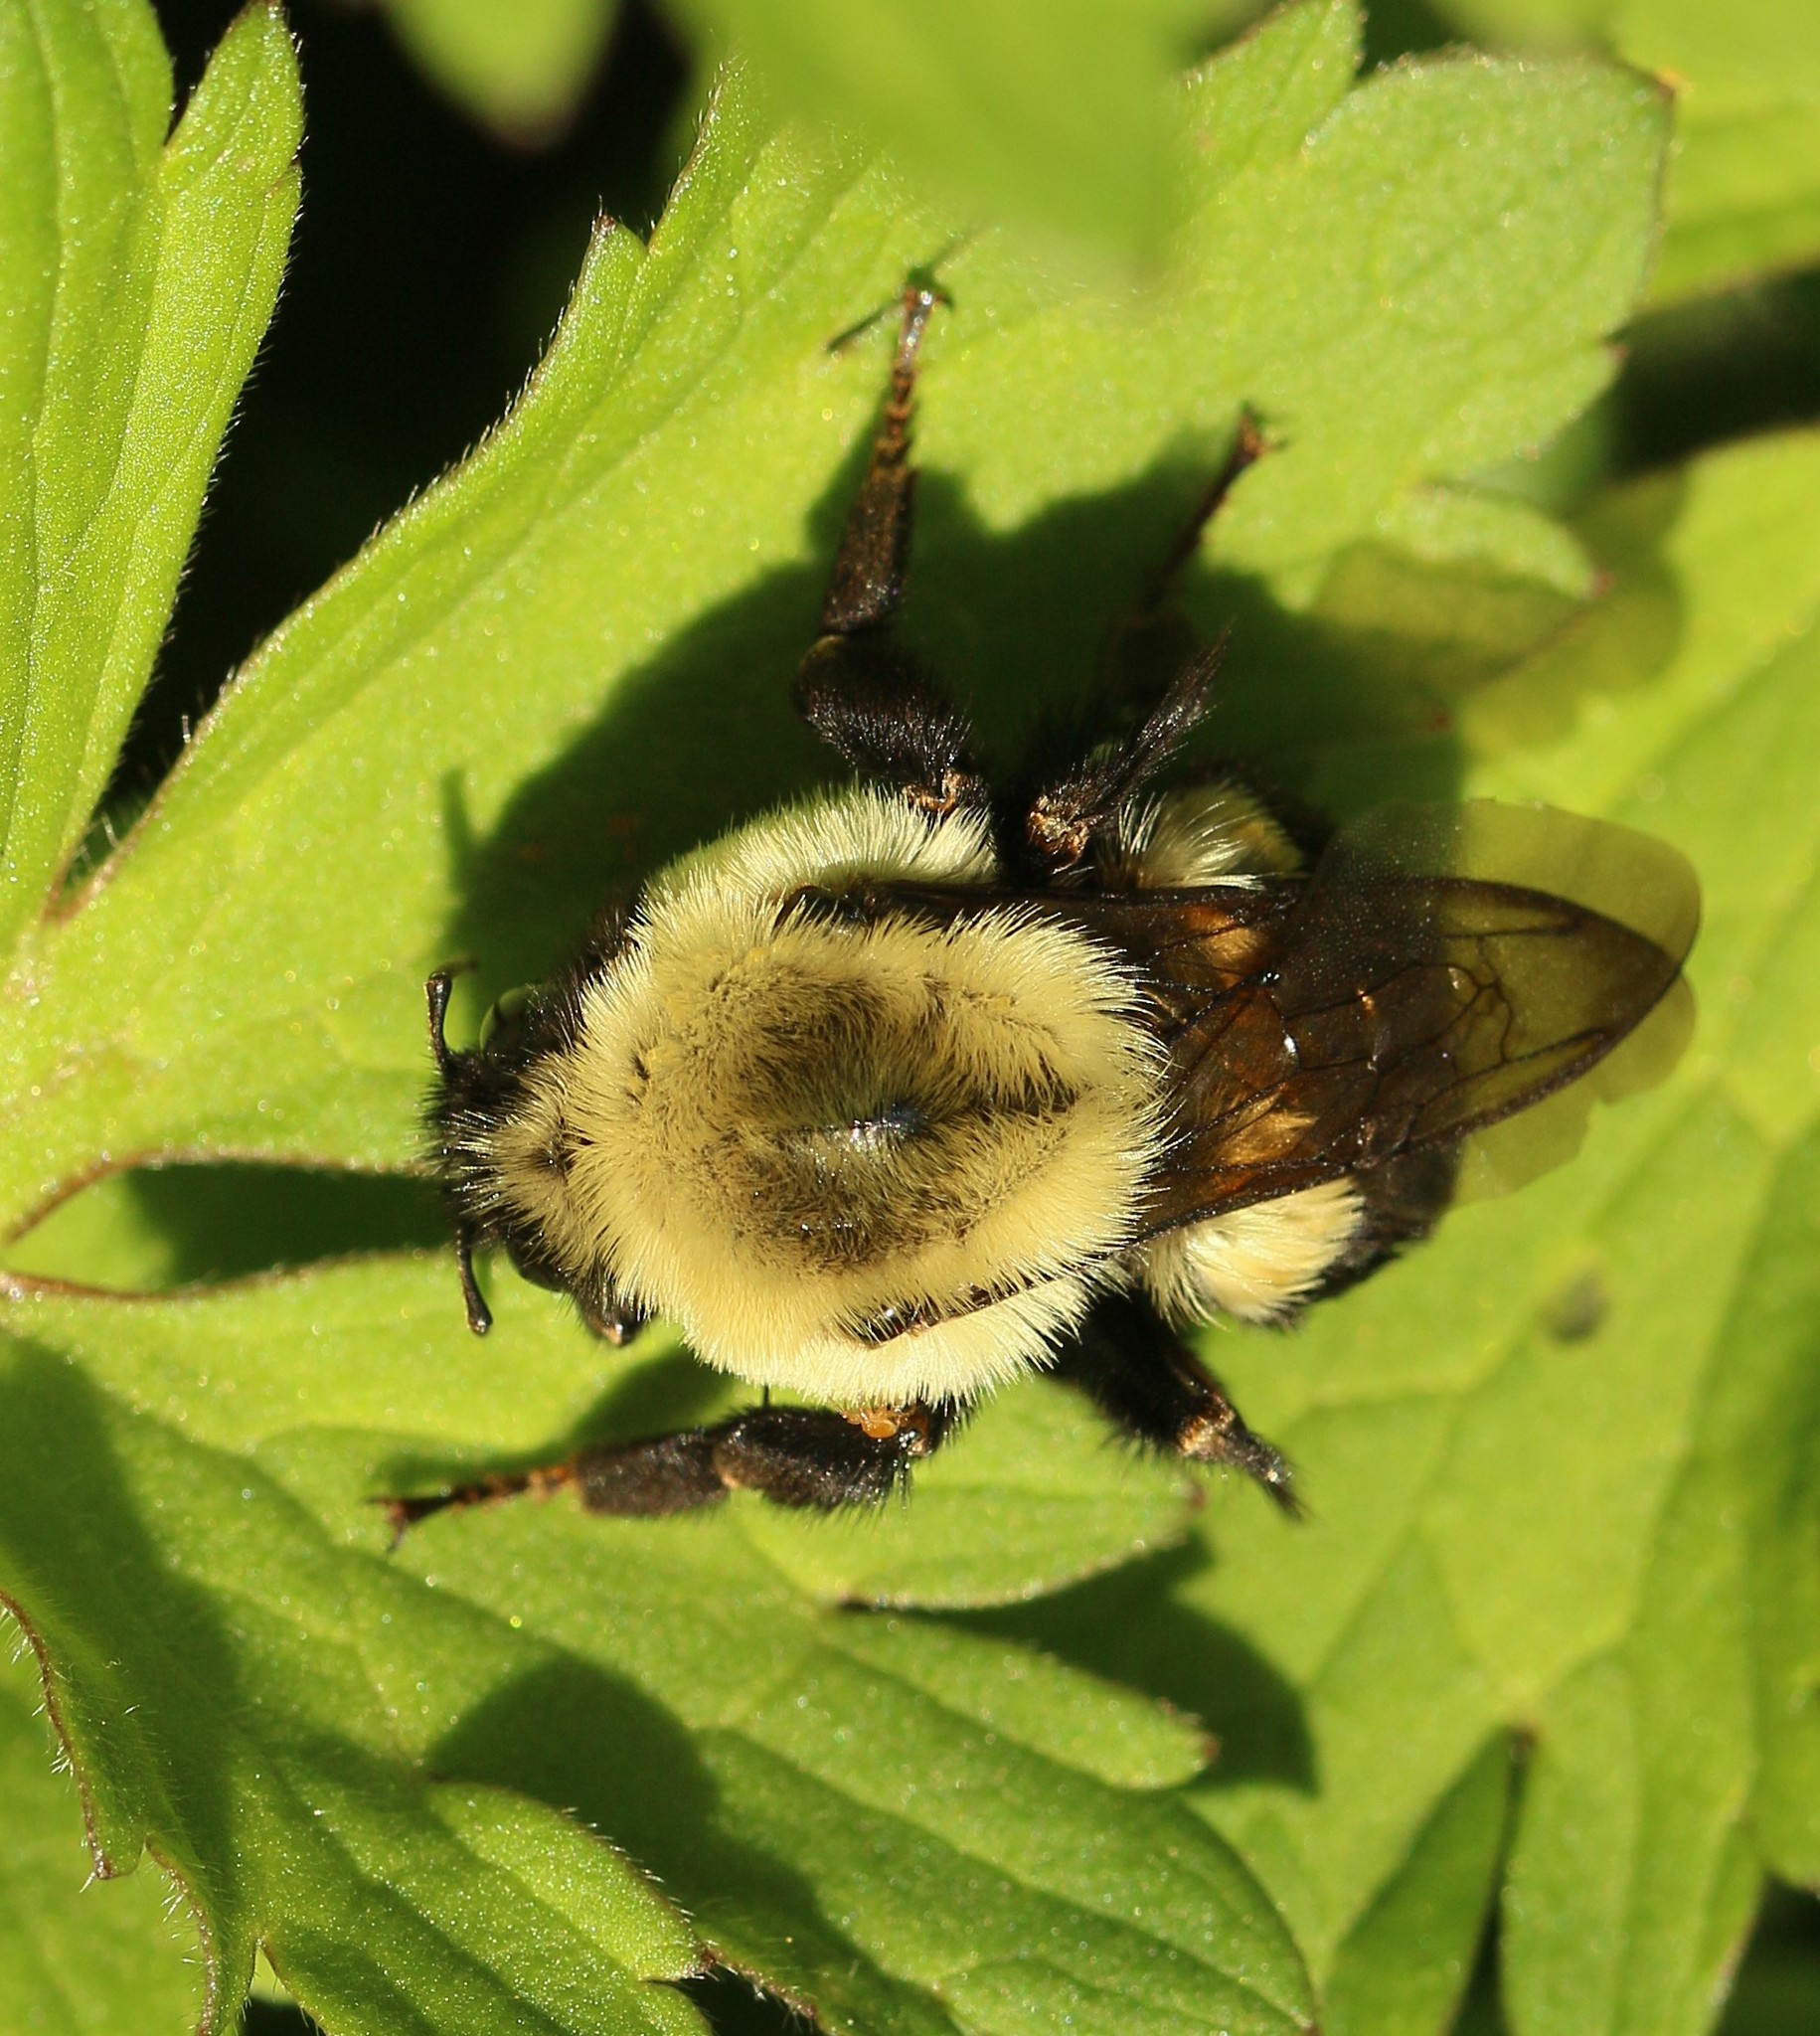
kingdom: Animalia
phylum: Arthropoda
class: Insecta
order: Hymenoptera
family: Apidae
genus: Bombus
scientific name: Bombus impatiens
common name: Common eastern bumble bee
